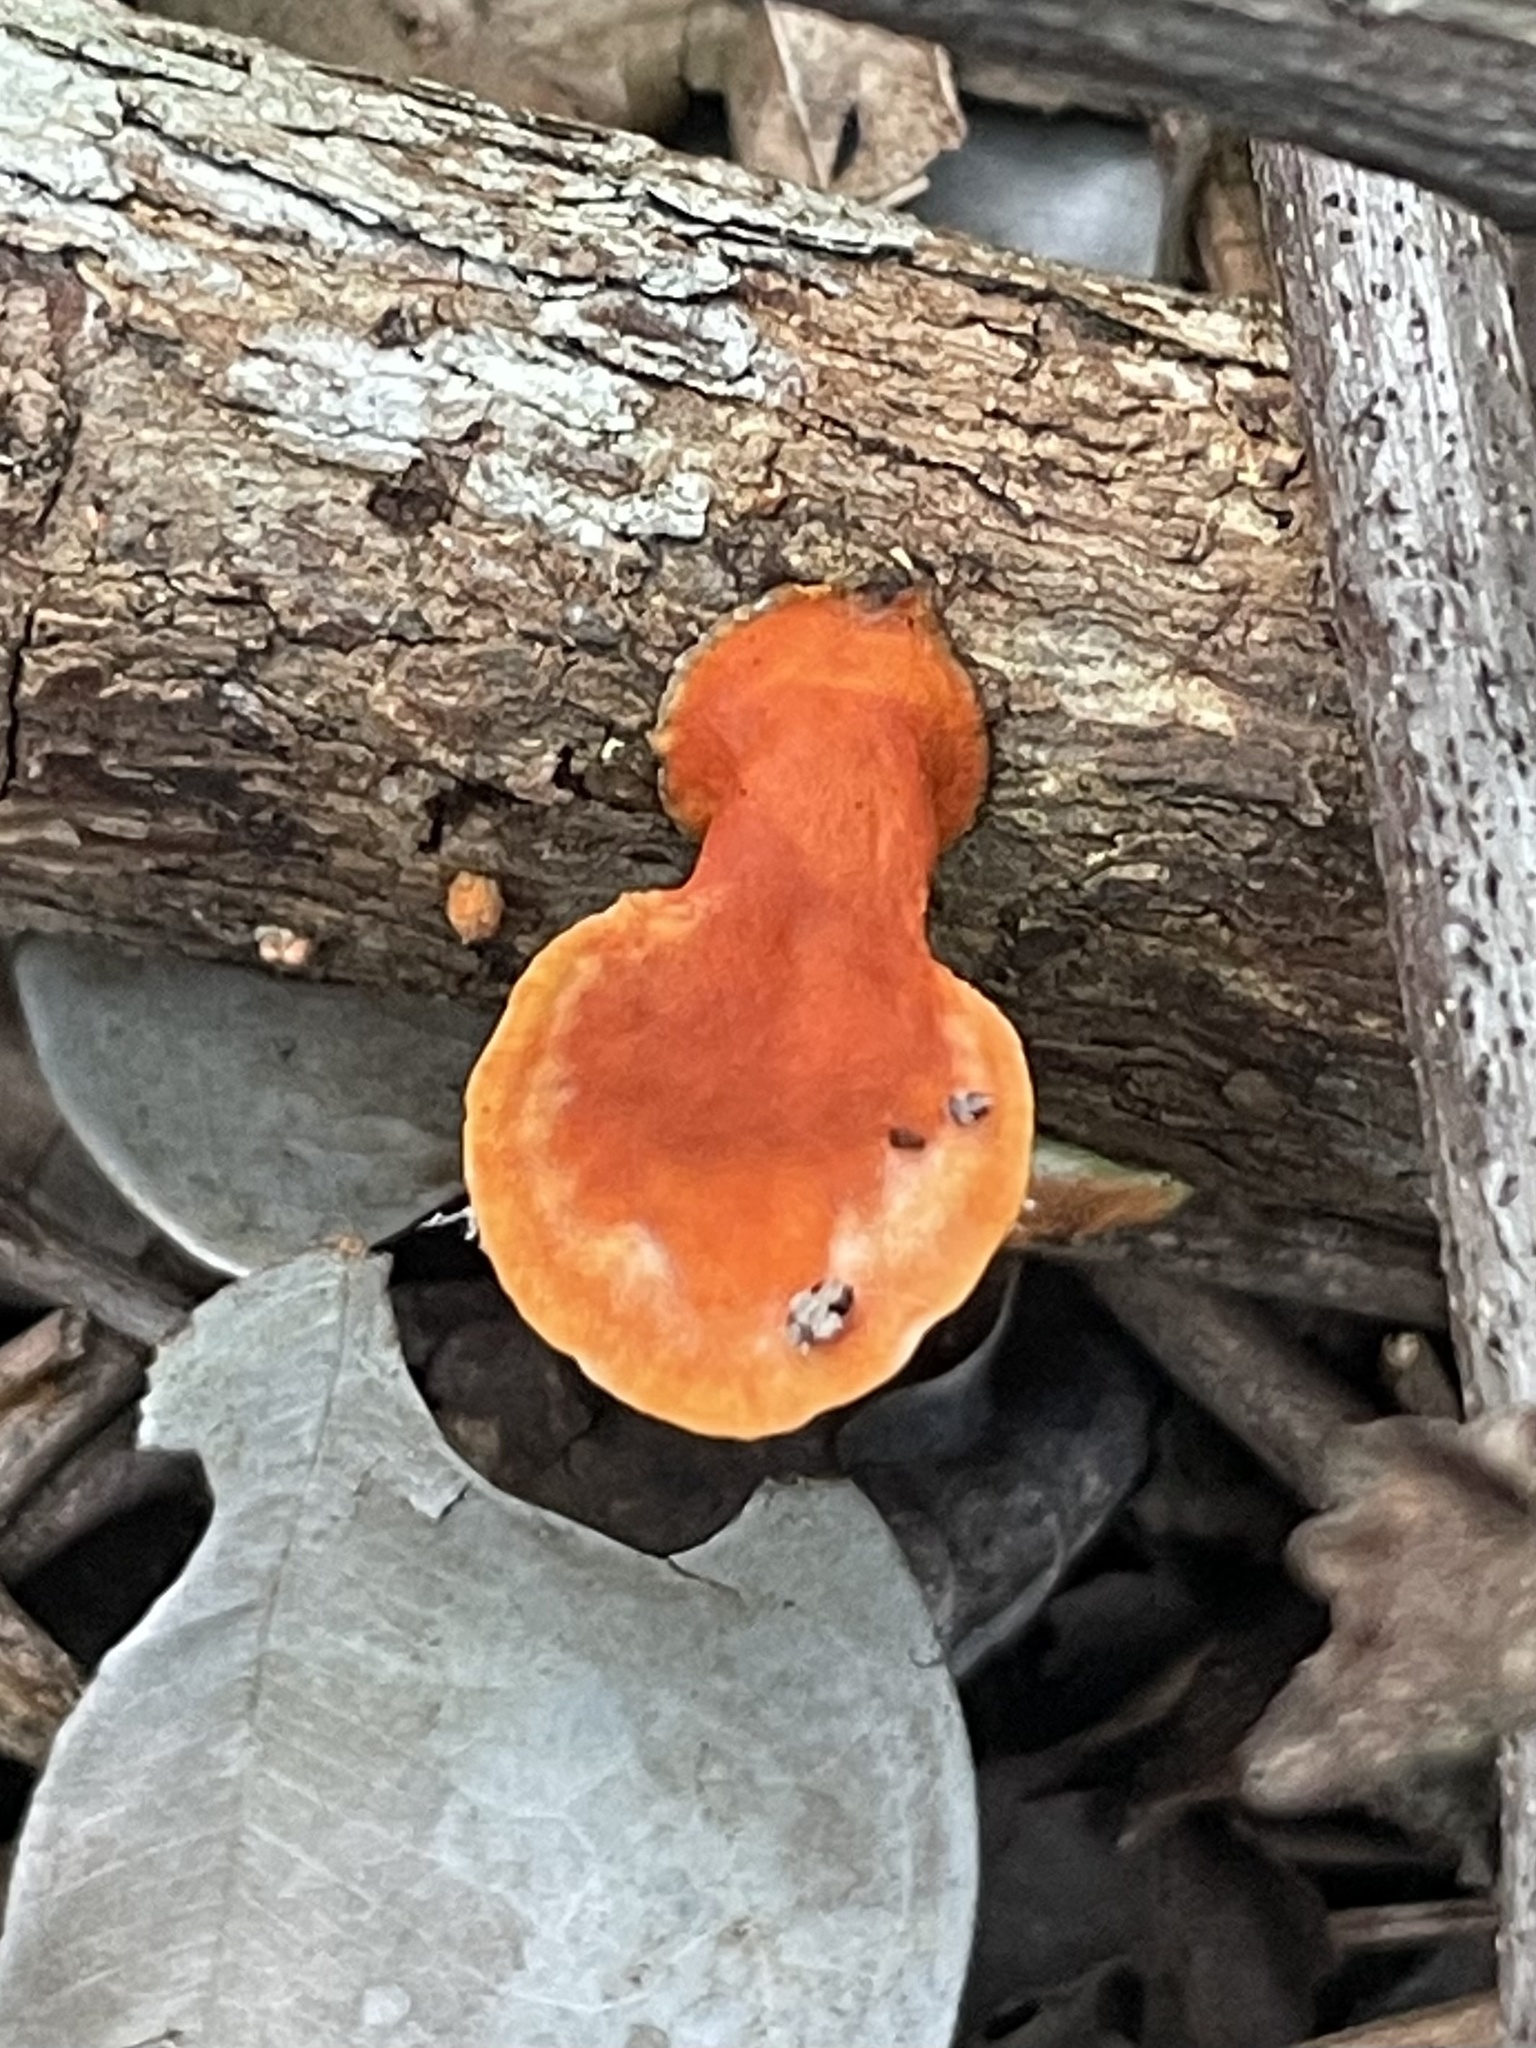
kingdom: Fungi
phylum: Basidiomycota
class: Agaricomycetes
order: Polyporales
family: Polyporaceae
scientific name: Polyporaceae
